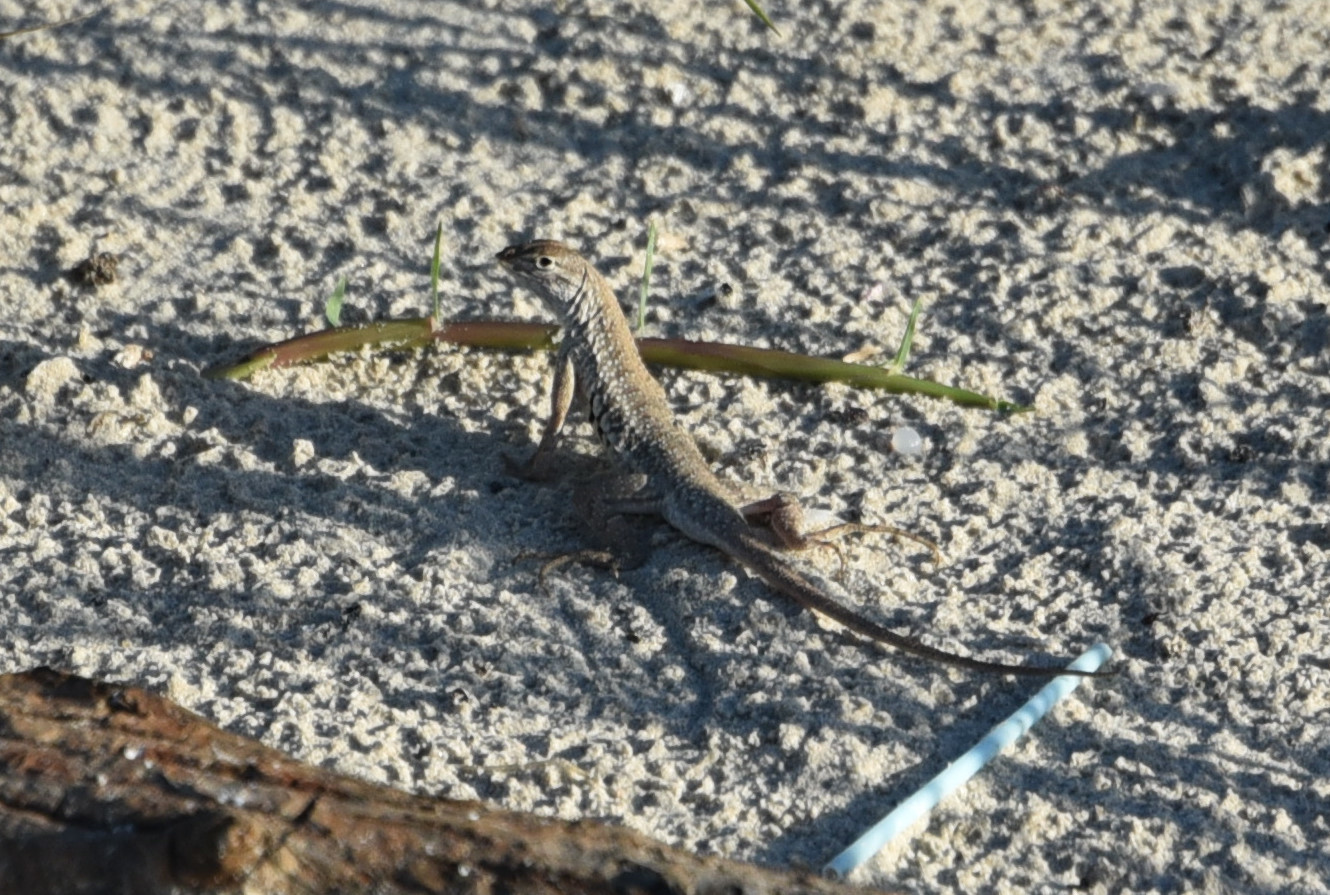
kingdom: Animalia
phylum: Chordata
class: Squamata
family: Phrynosomatidae
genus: Holbrookia
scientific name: Holbrookia propinqua
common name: Keeled earless lizard
